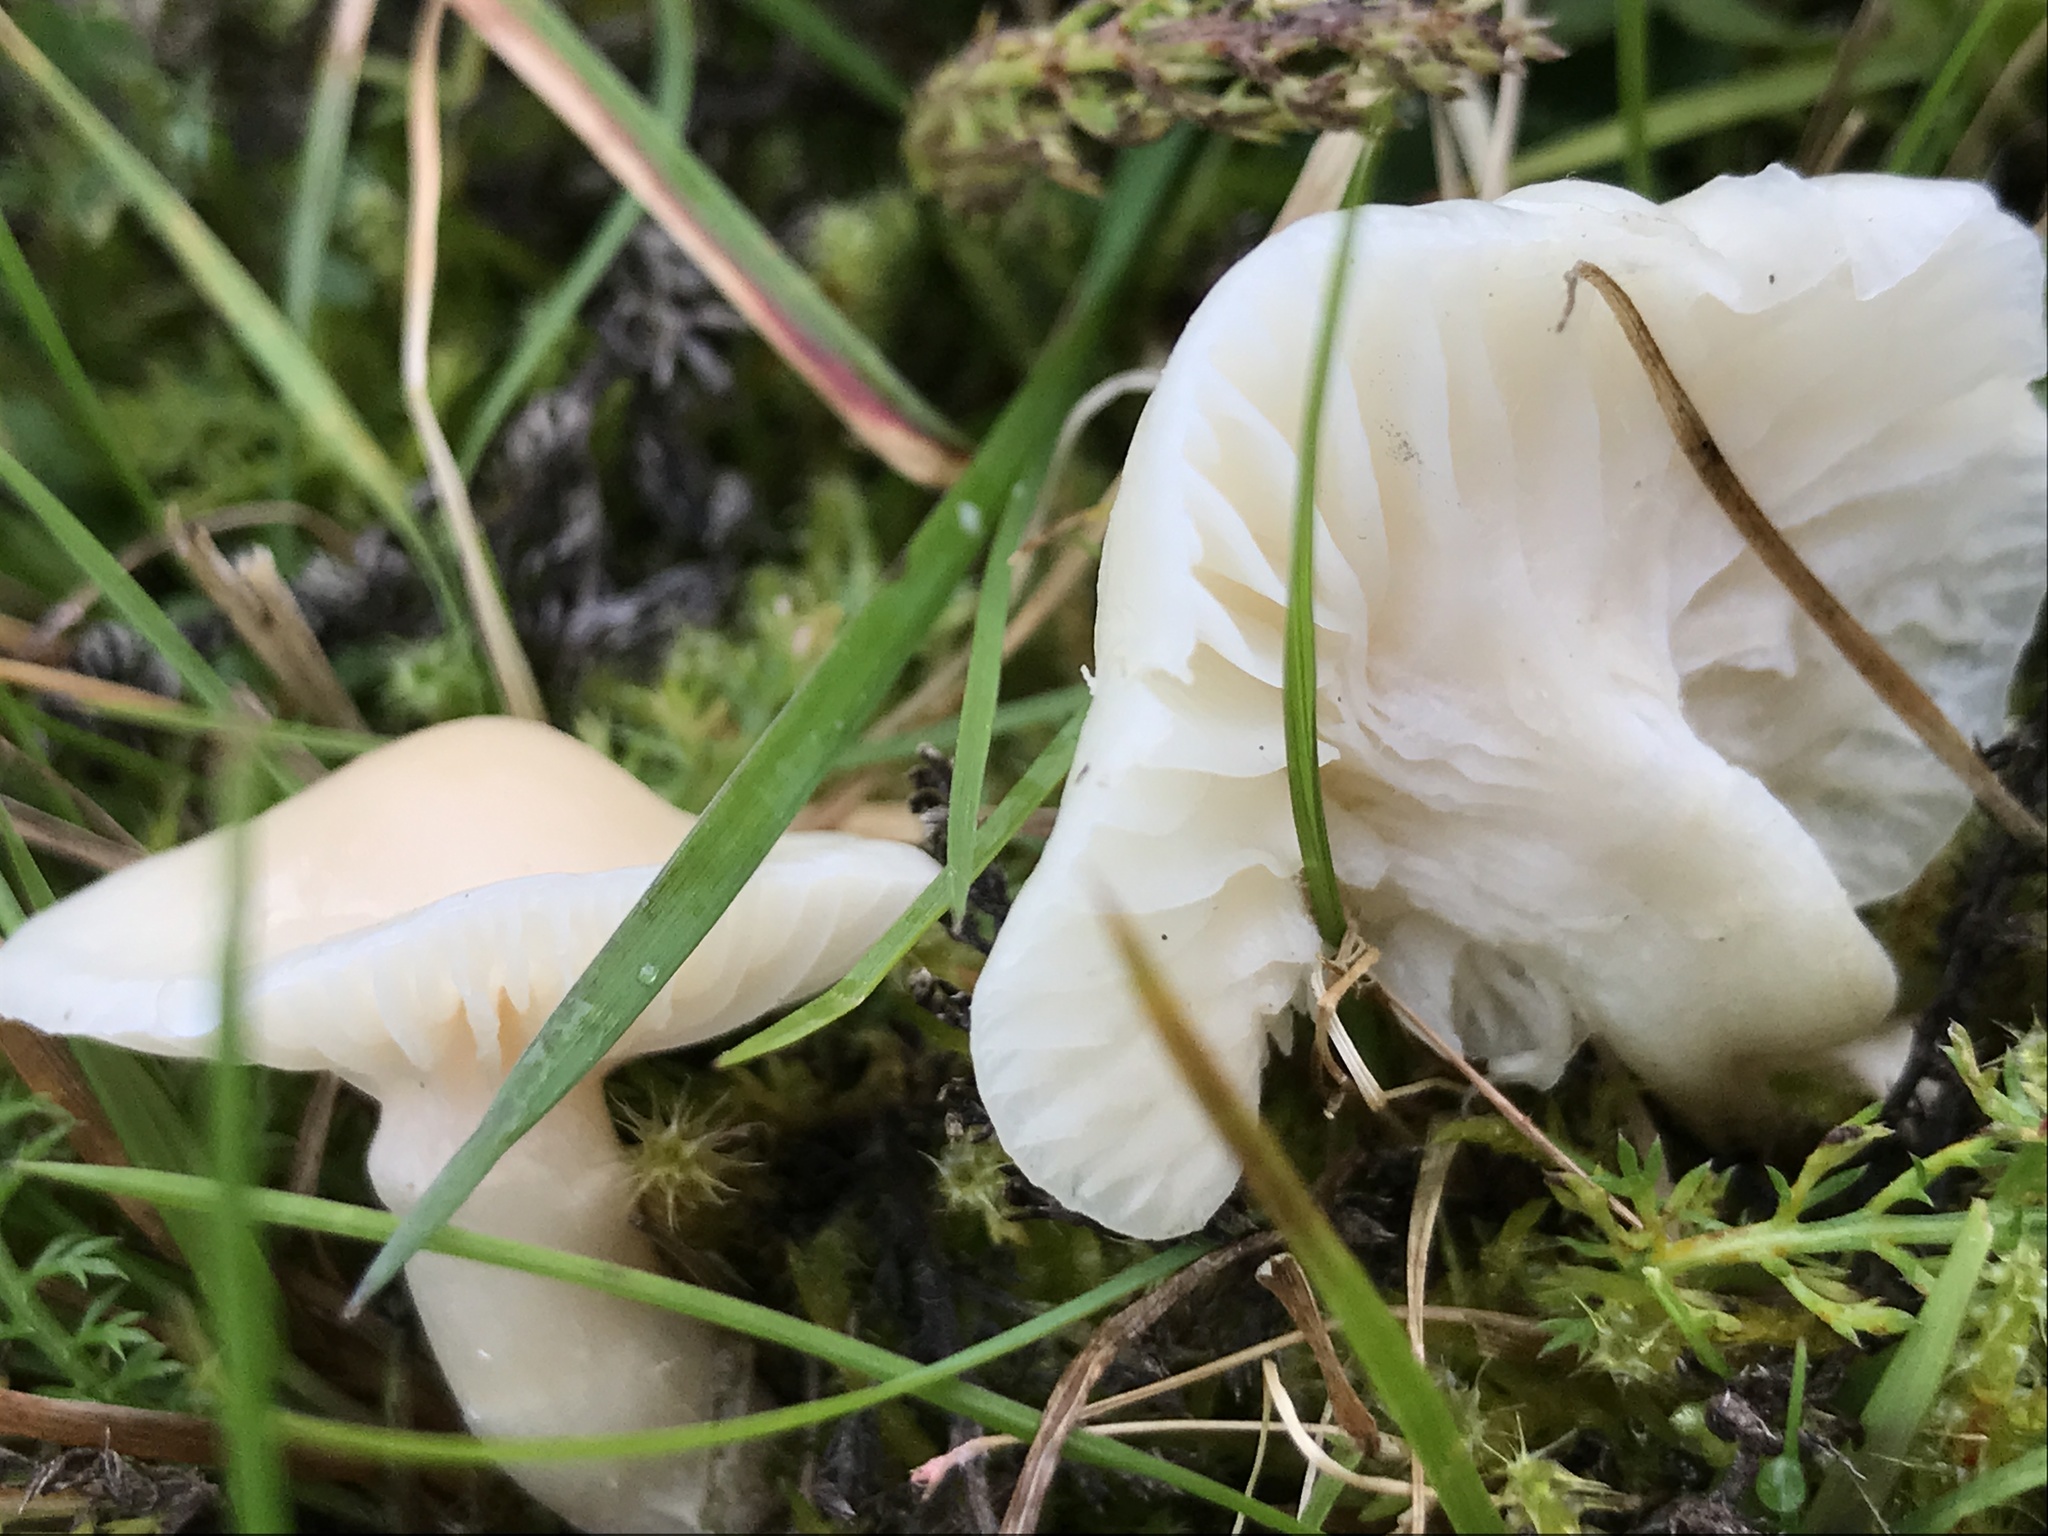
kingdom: Fungi
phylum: Basidiomycota
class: Agaricomycetes
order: Agaricales
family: Hygrophoraceae
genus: Cuphophyllus
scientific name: Cuphophyllus virgineus
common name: Snowy waxcap
